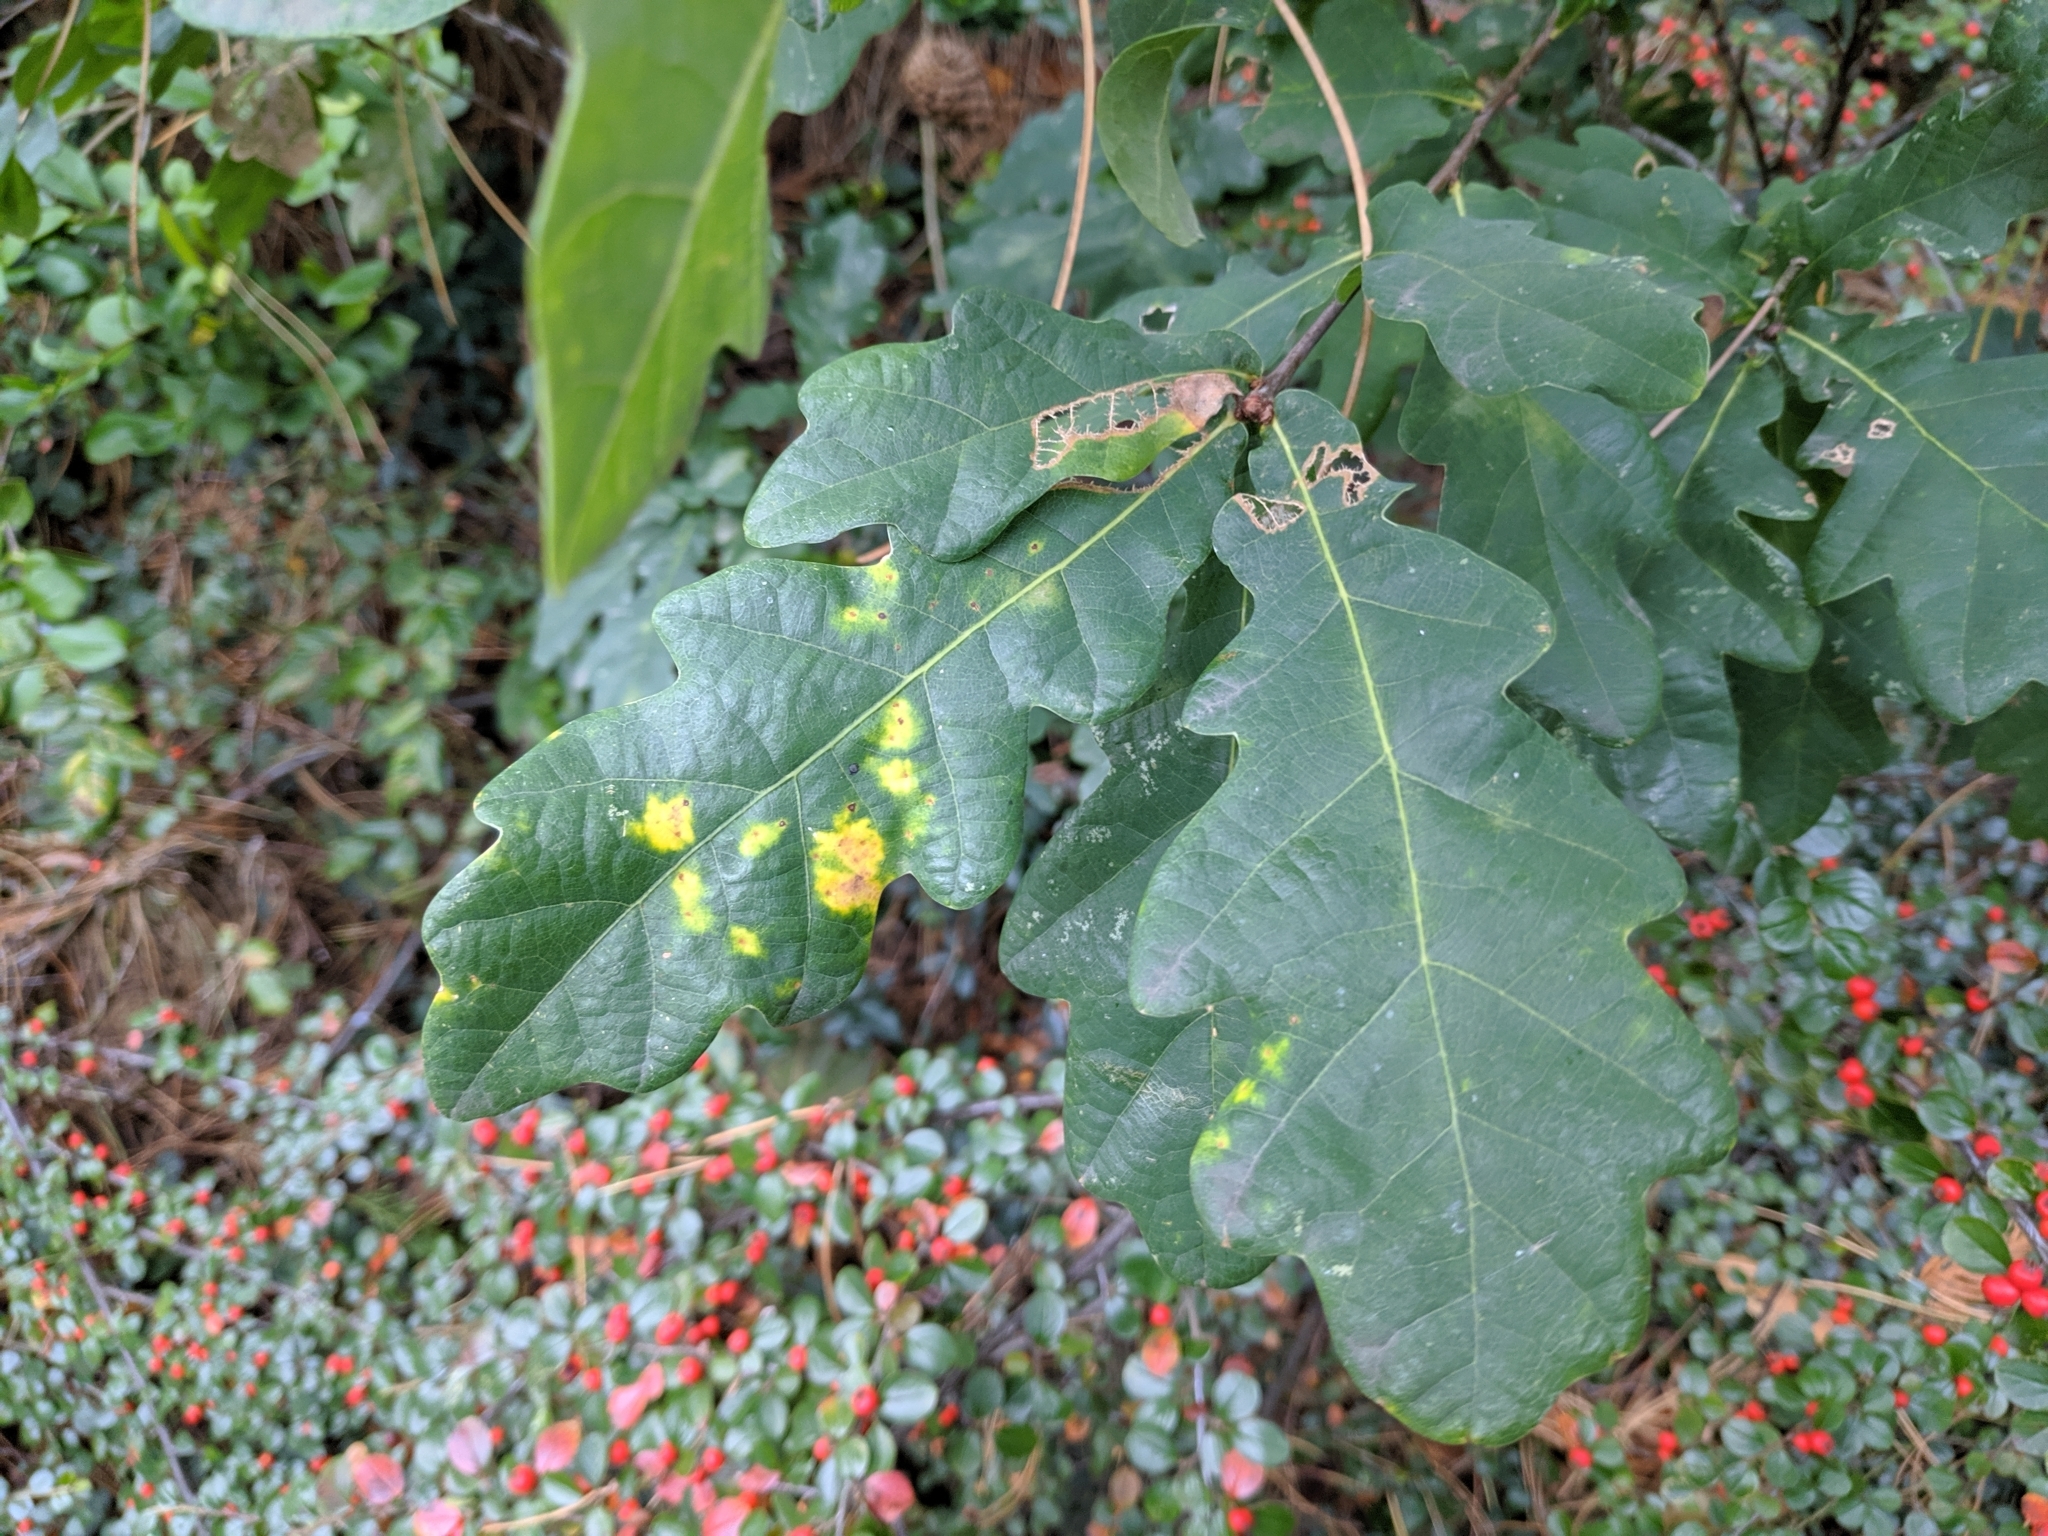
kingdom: Animalia
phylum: Arthropoda
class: Insecta
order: Hymenoptera
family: Cynipidae
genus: Neuroterus
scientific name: Neuroterus quercusbaccarum
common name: Common spangle gall
